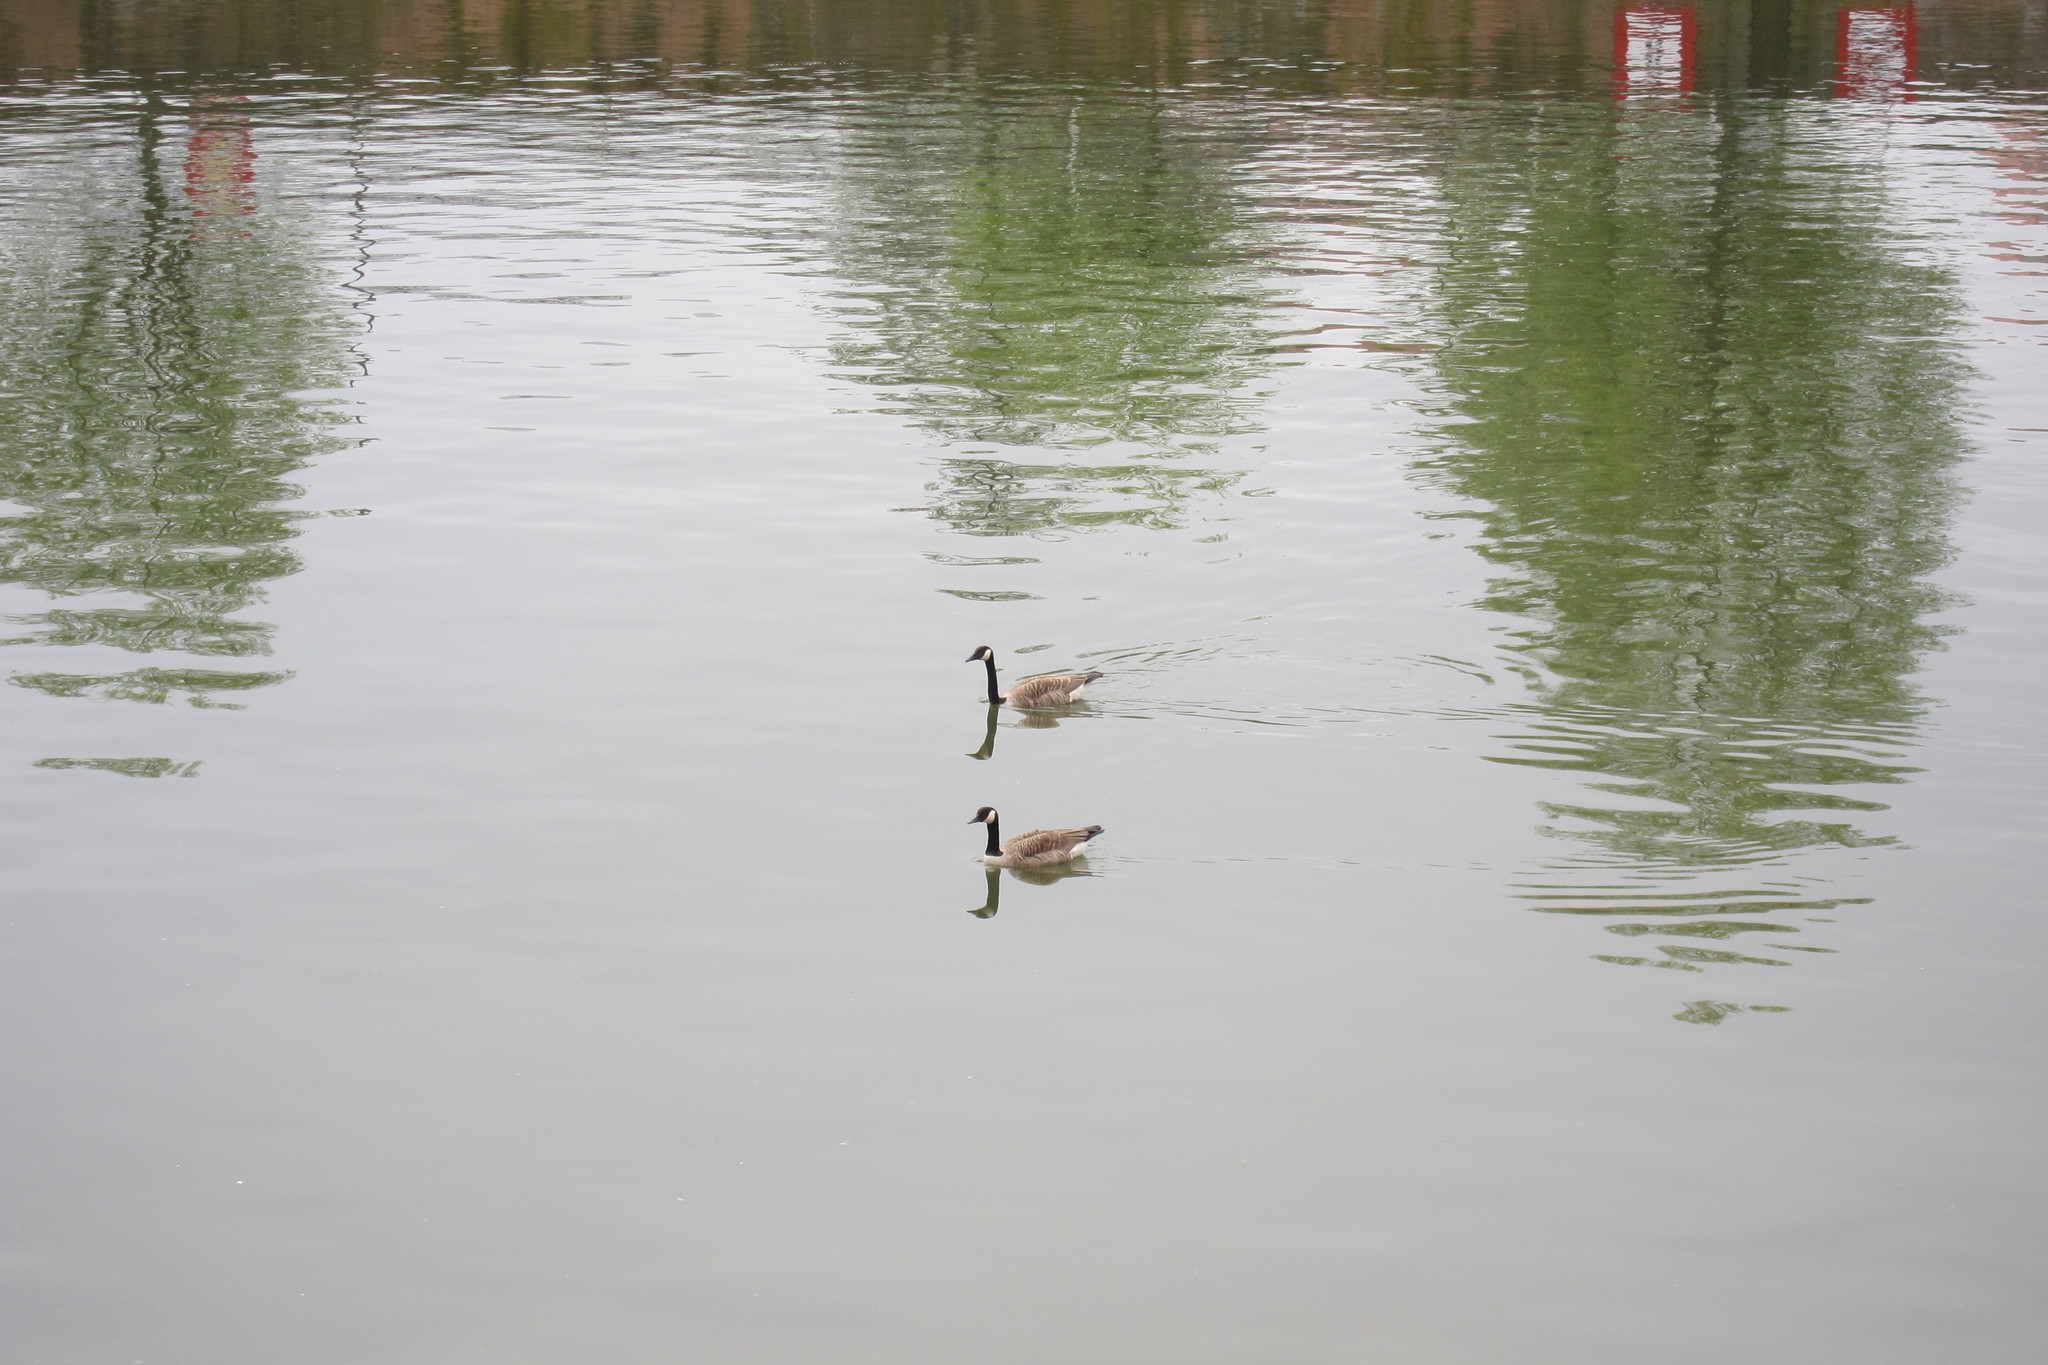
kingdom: Animalia
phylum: Chordata
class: Aves
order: Anseriformes
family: Anatidae
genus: Branta
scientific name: Branta canadensis
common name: Canada goose
